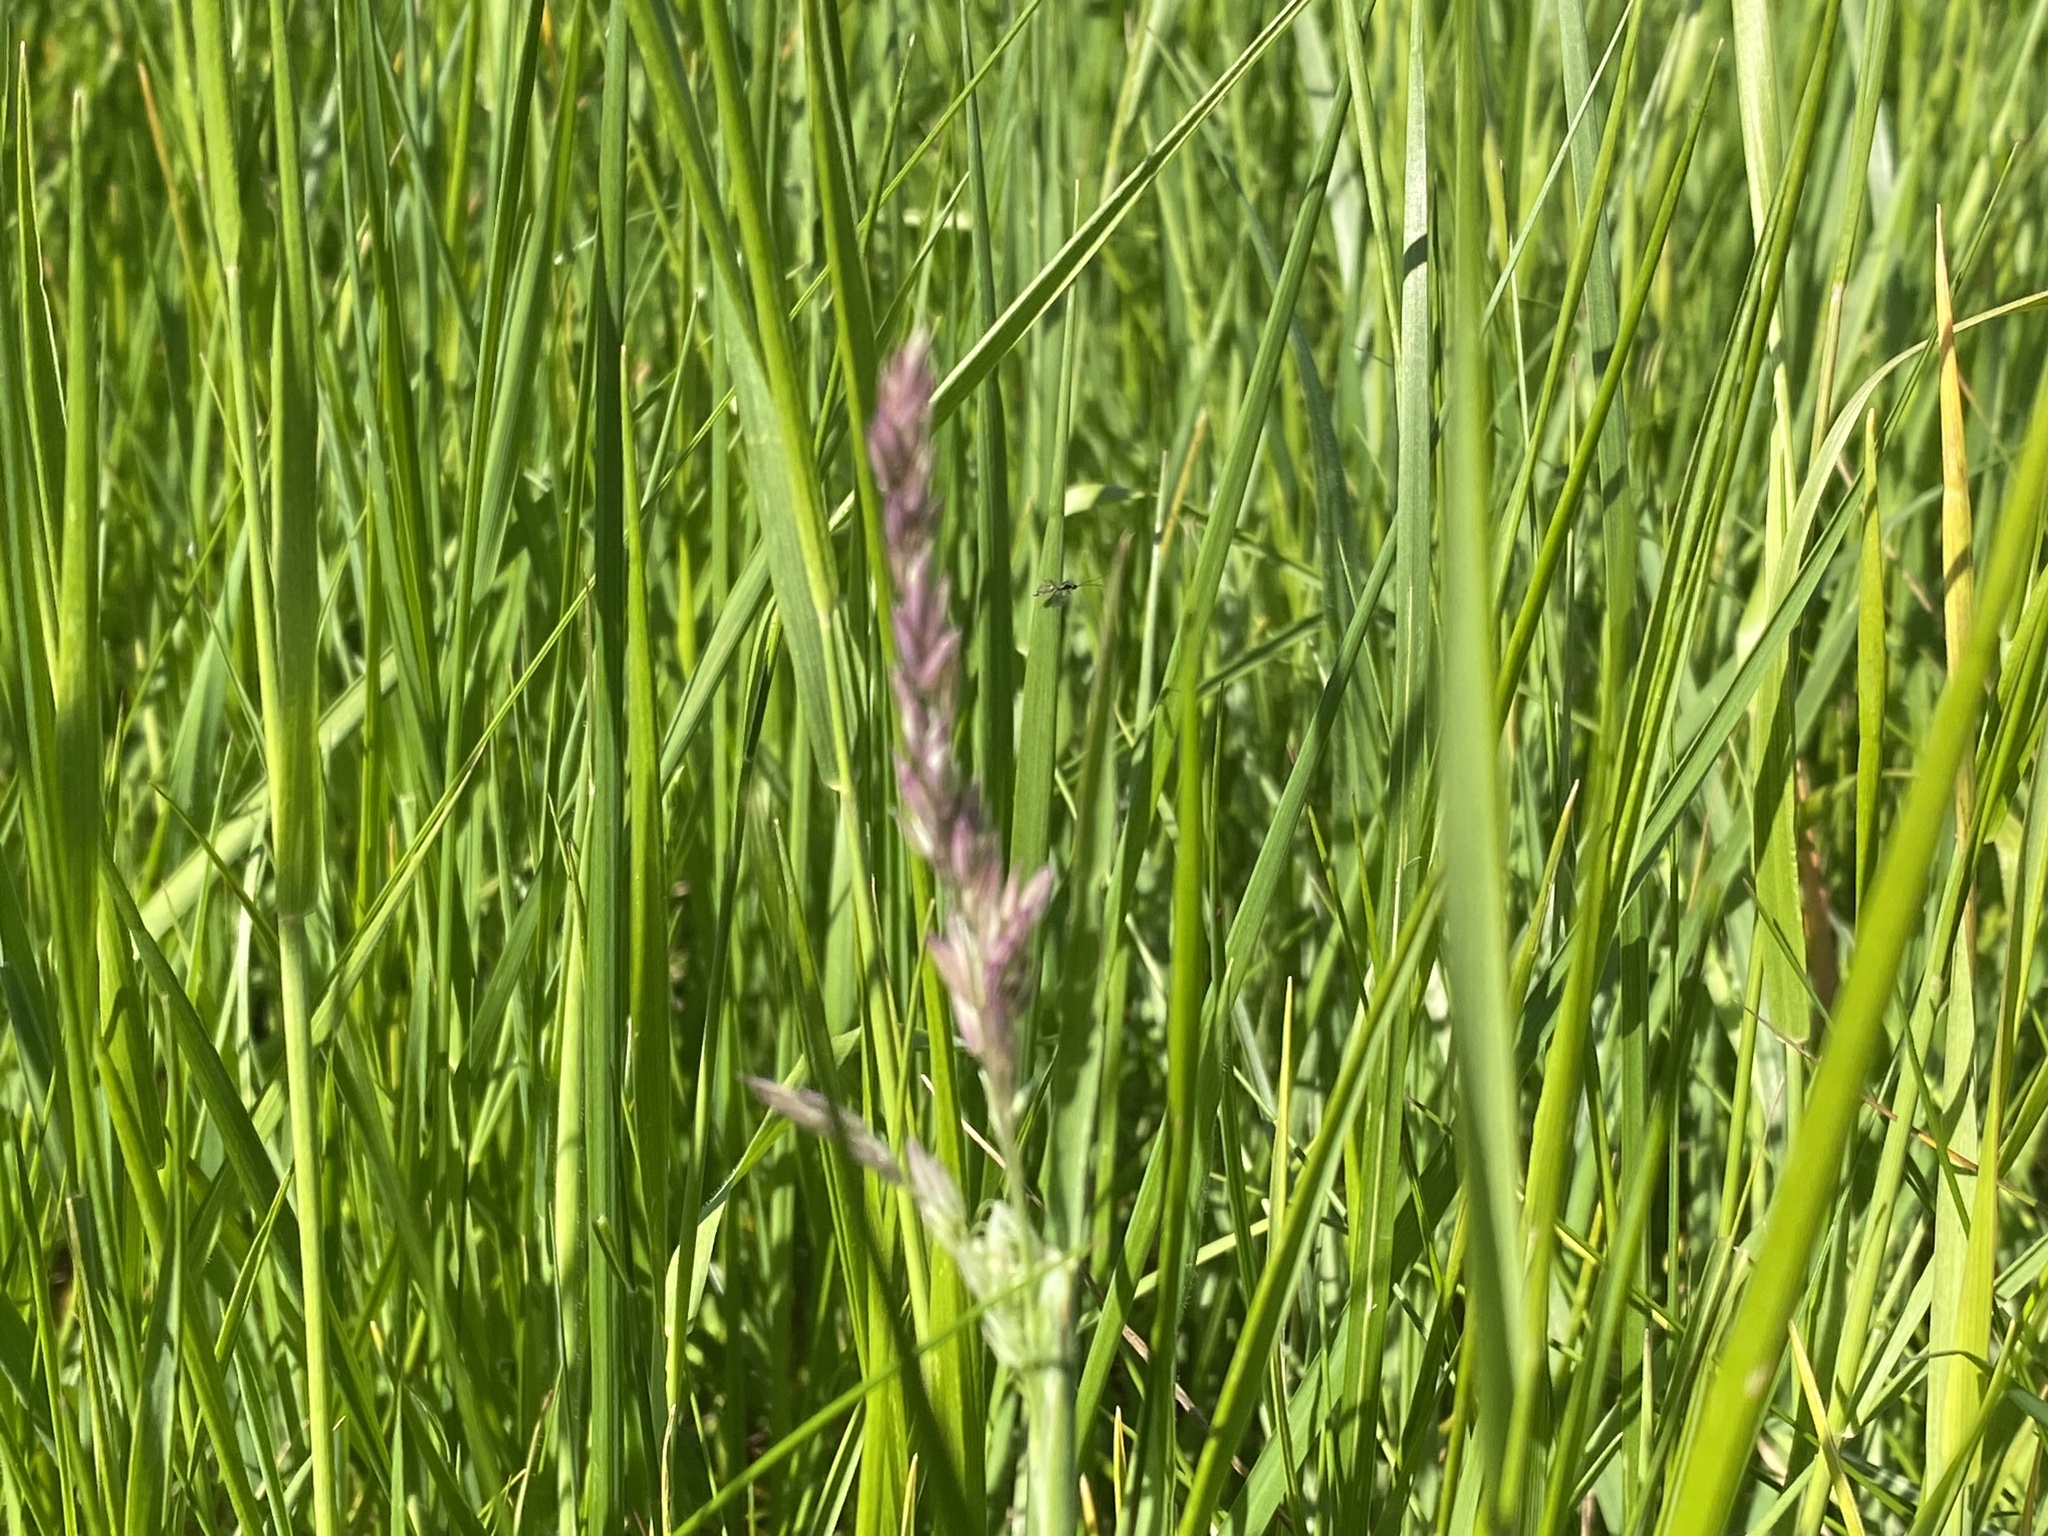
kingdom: Plantae
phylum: Tracheophyta
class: Liliopsida
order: Poales
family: Poaceae
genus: Holcus
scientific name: Holcus lanatus
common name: Yorkshire-fog
